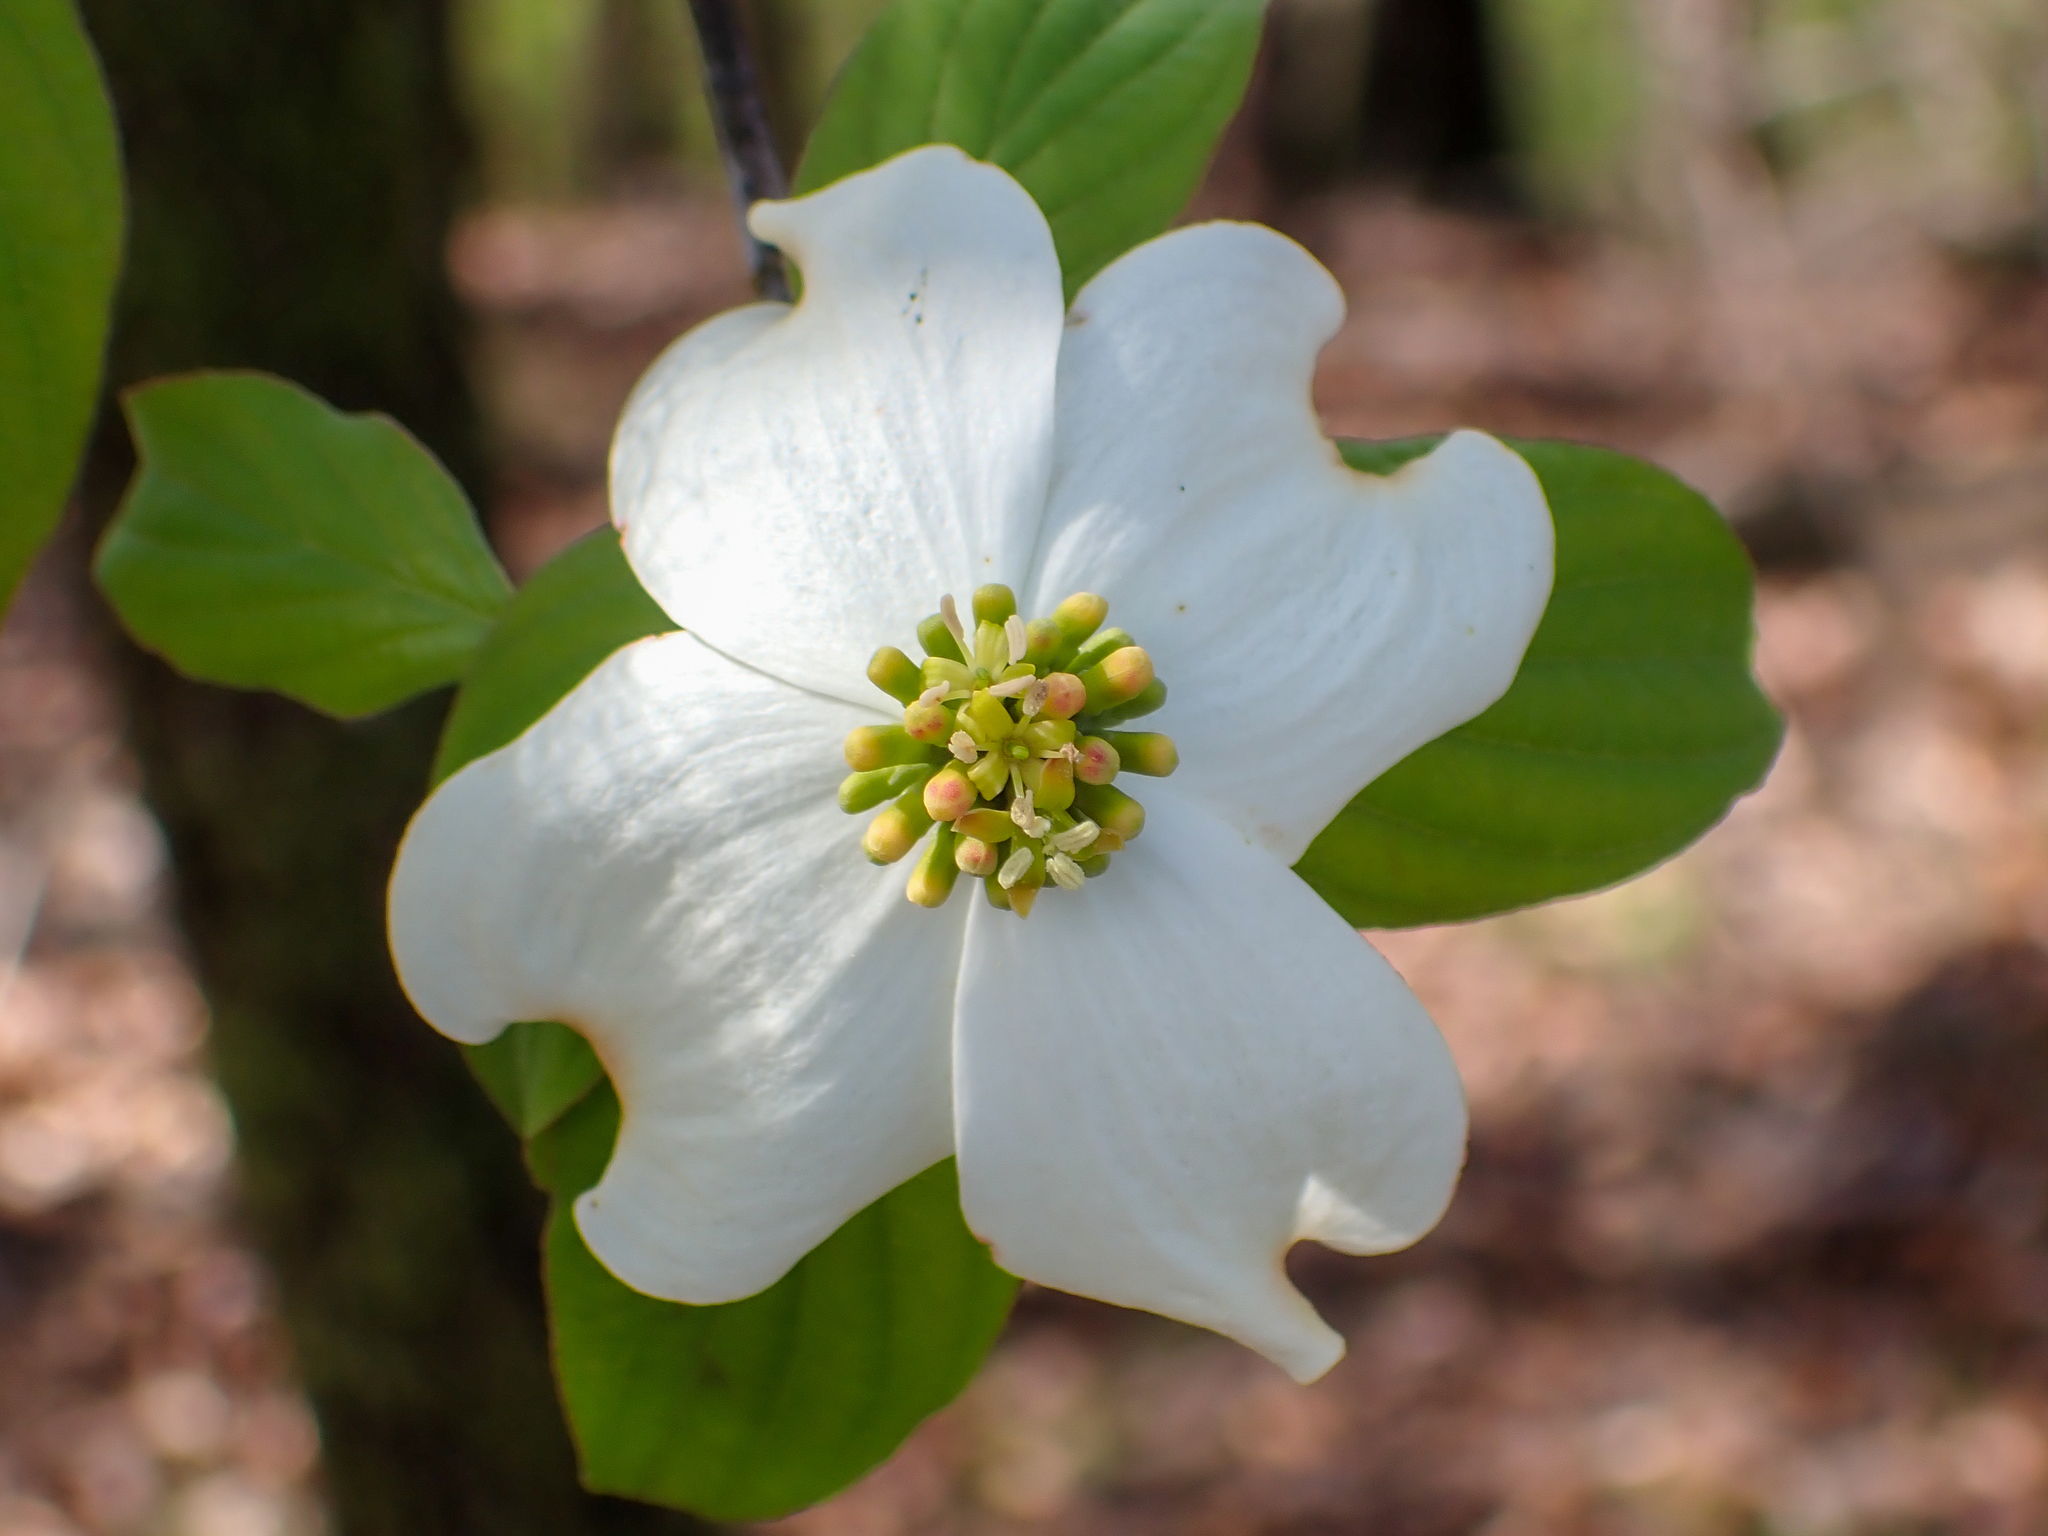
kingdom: Plantae
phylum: Tracheophyta
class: Magnoliopsida
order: Cornales
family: Cornaceae
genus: Cornus
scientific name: Cornus florida
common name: Flowering dogwood
